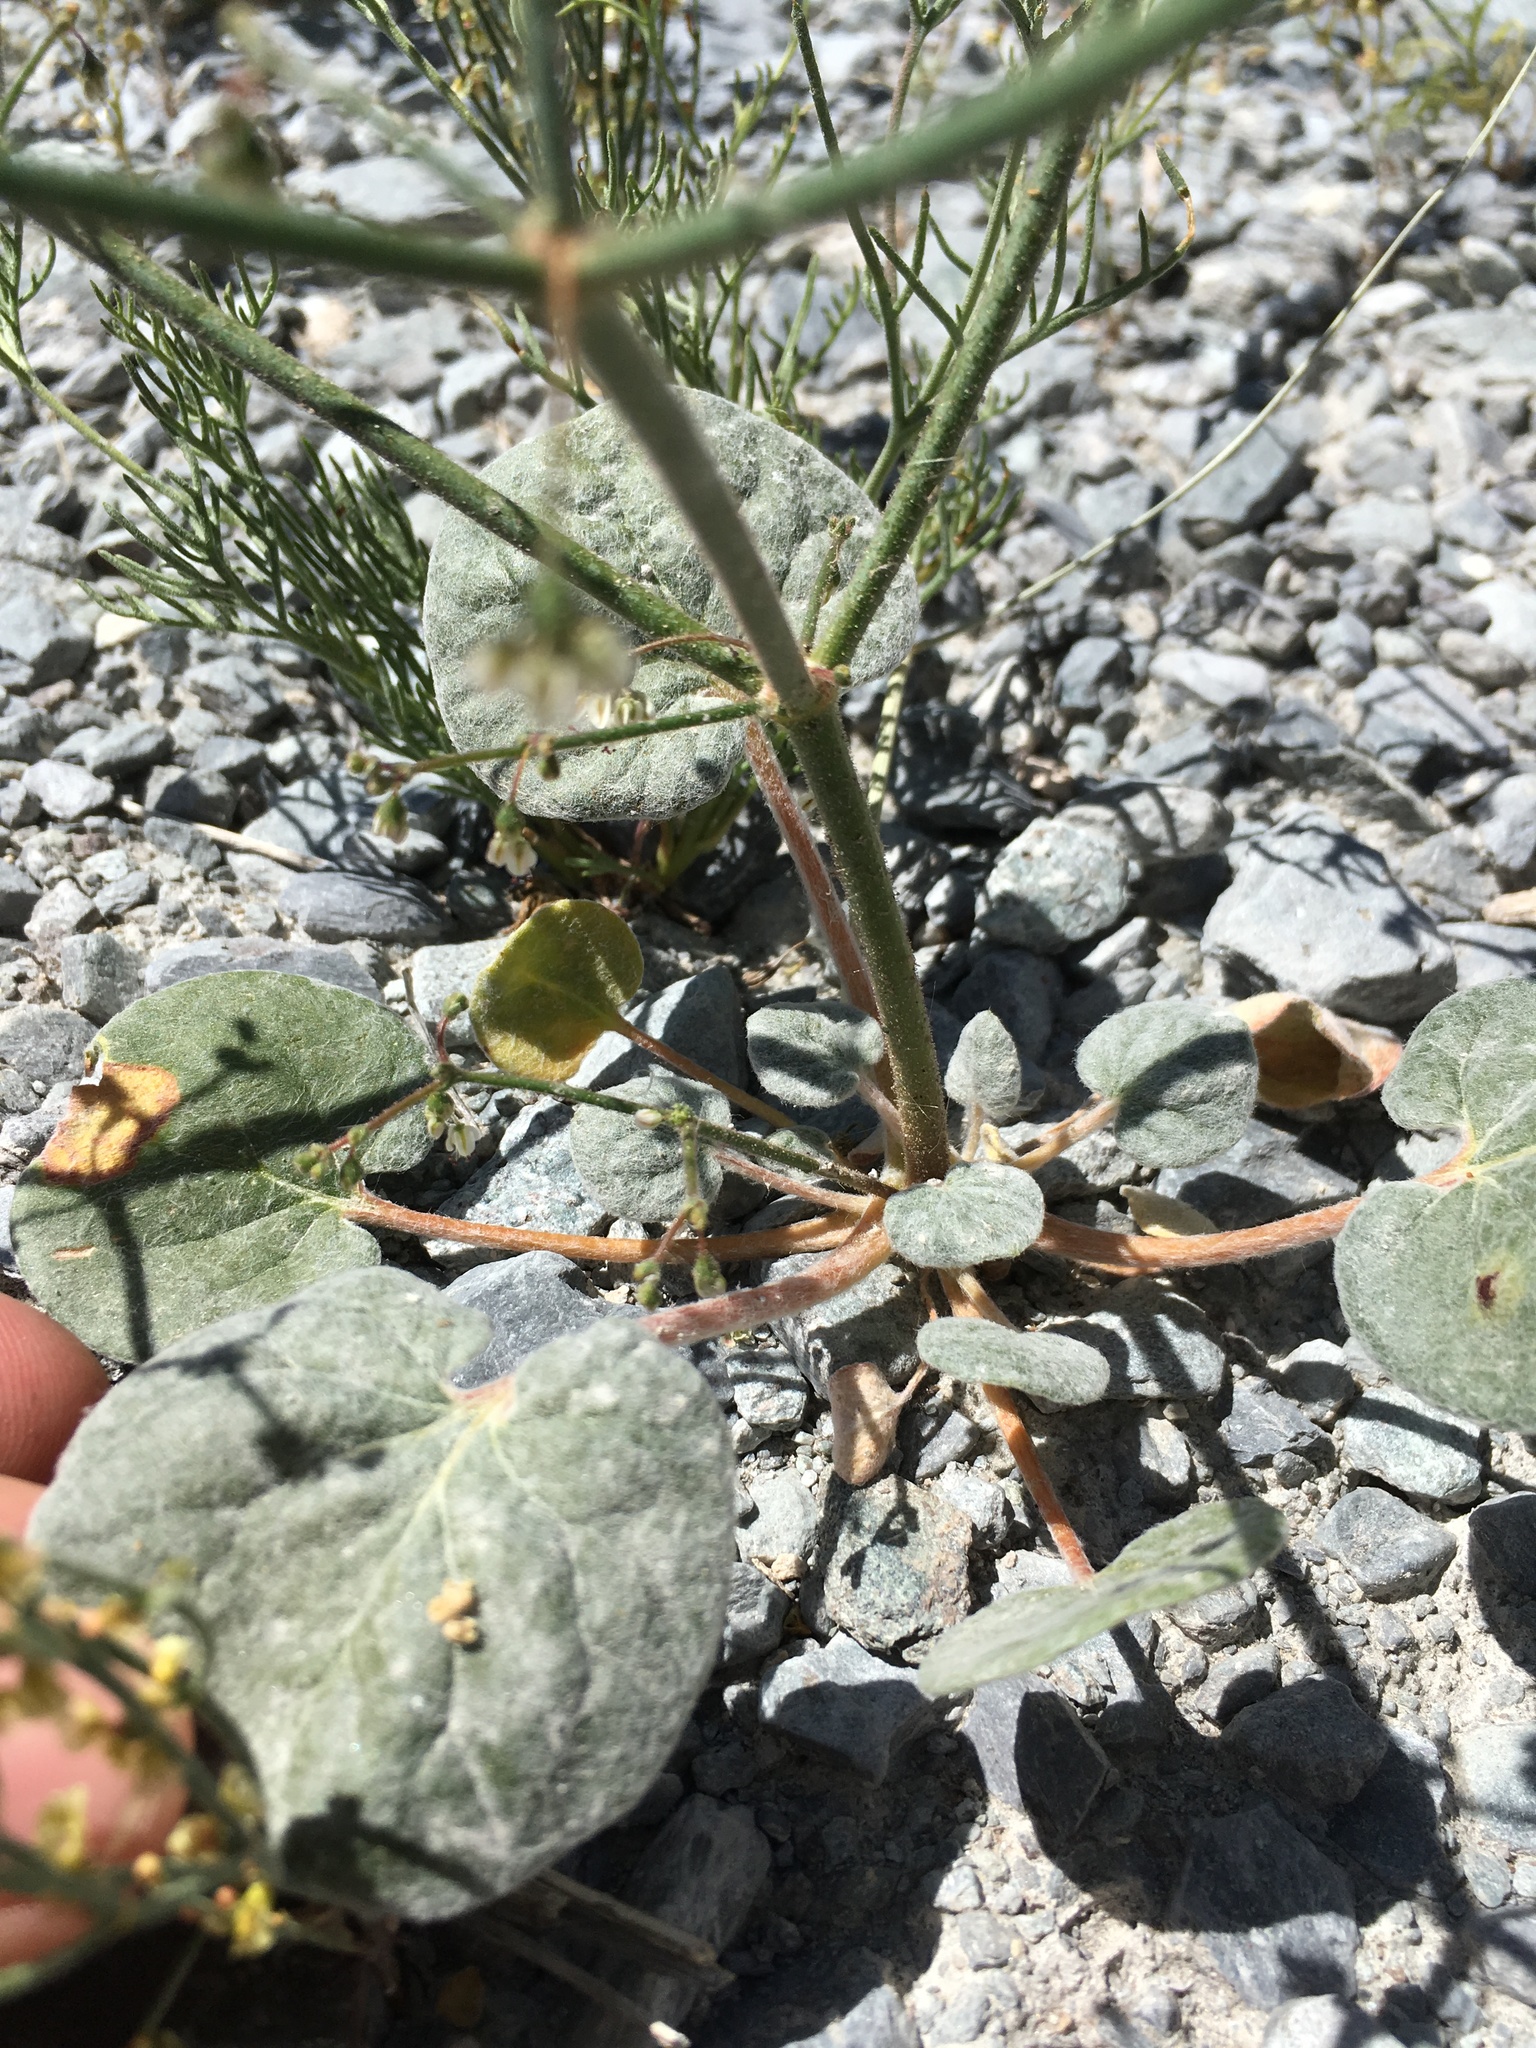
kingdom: Plantae
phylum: Tracheophyta
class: Magnoliopsida
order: Caryophyllales
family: Polygonaceae
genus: Eriogonum
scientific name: Eriogonum brachypodum
